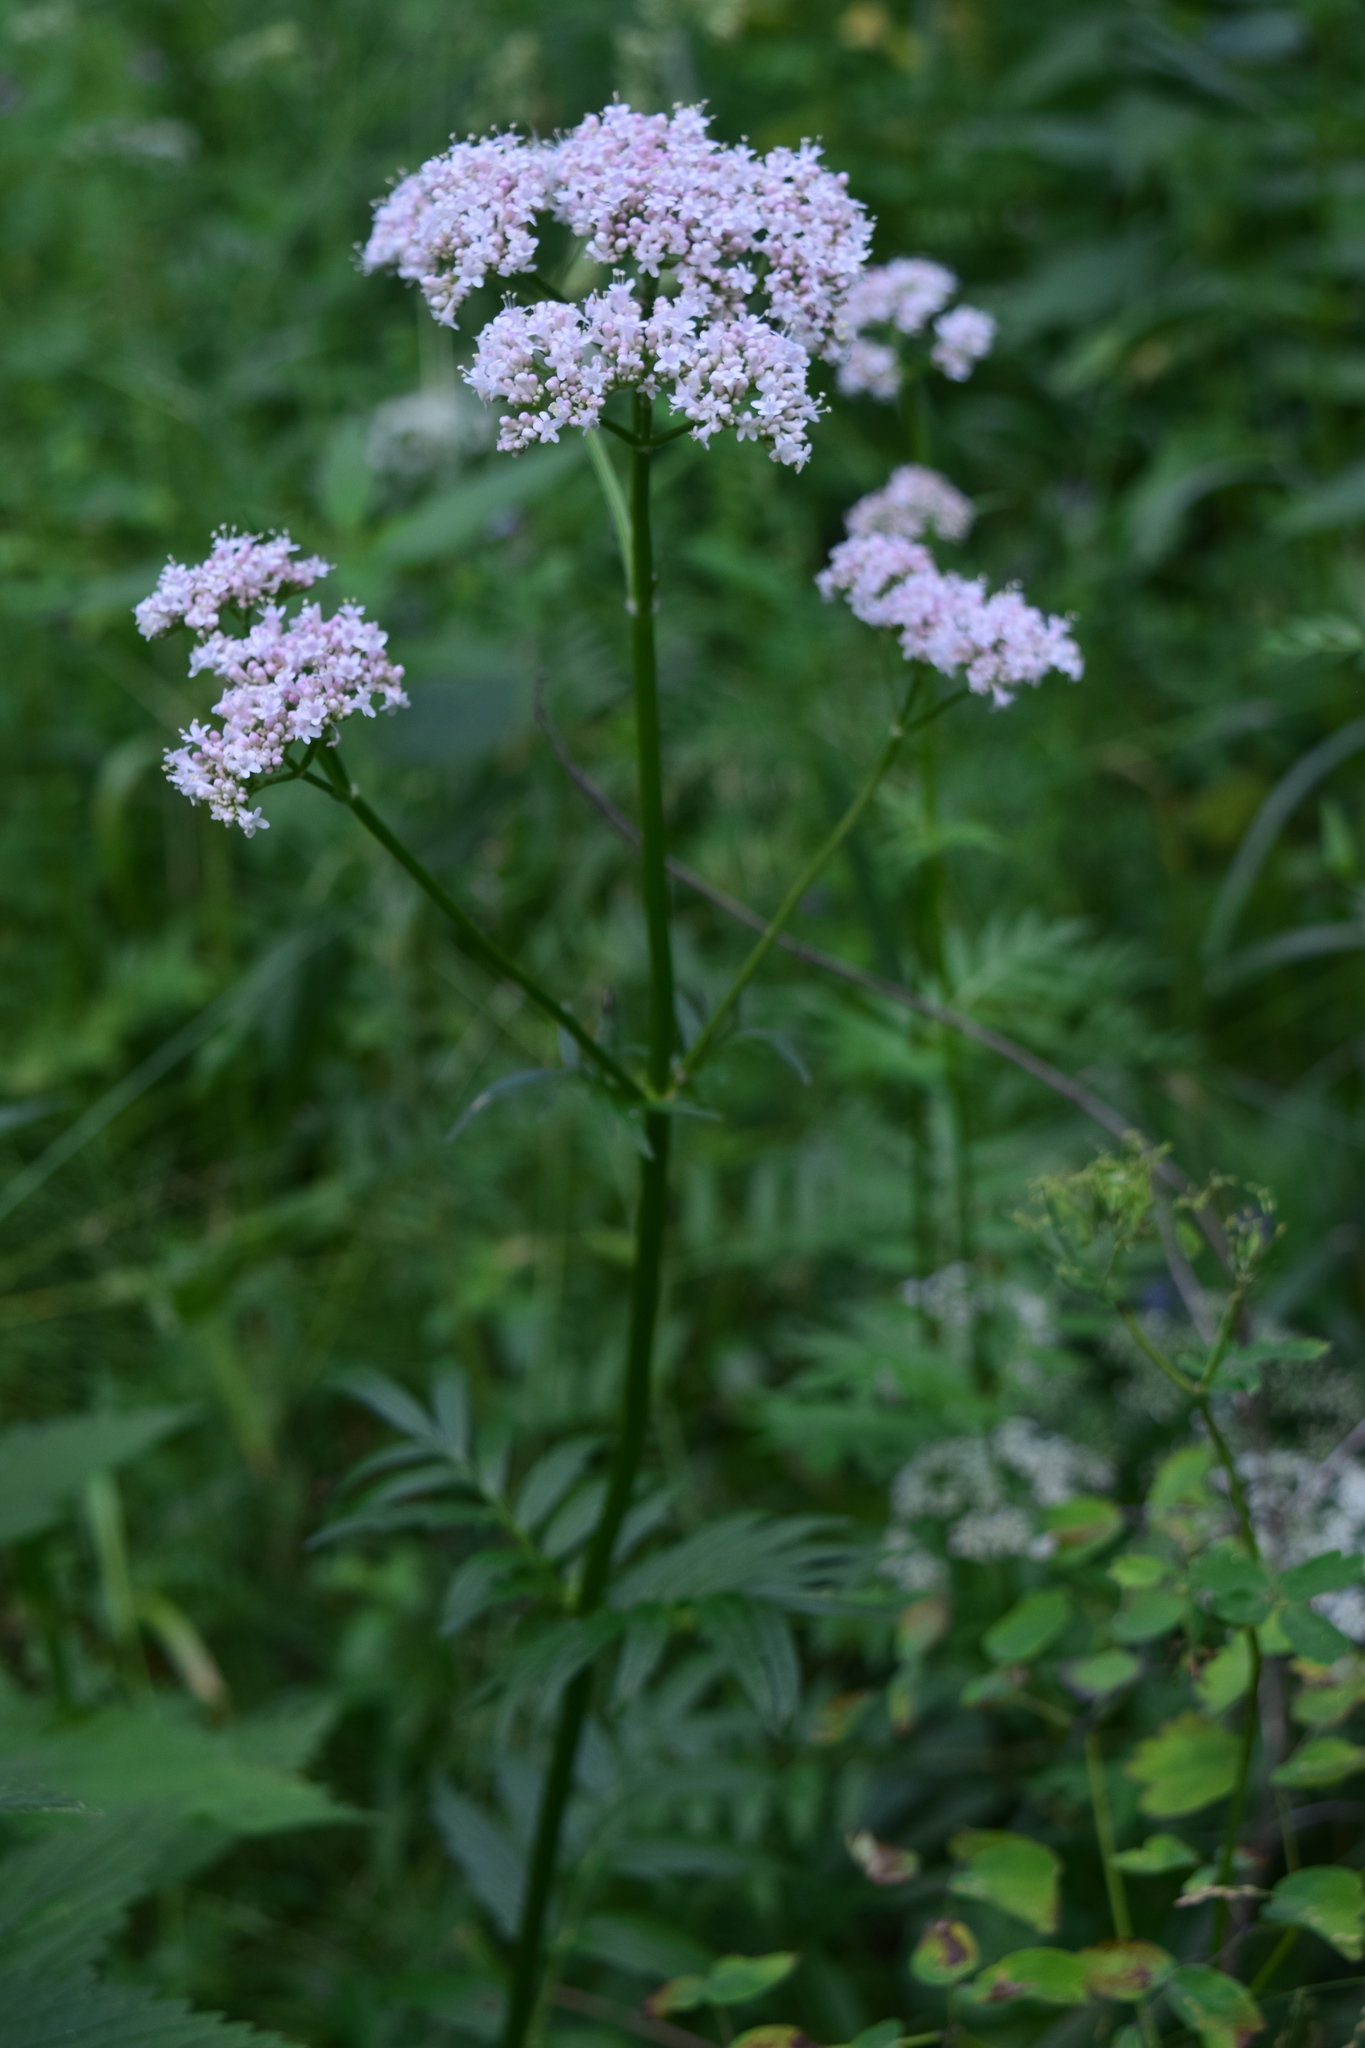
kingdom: Plantae
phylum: Tracheophyta
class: Magnoliopsida
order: Dipsacales
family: Caprifoliaceae
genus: Valeriana
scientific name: Valeriana officinalis
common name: Common valerian
